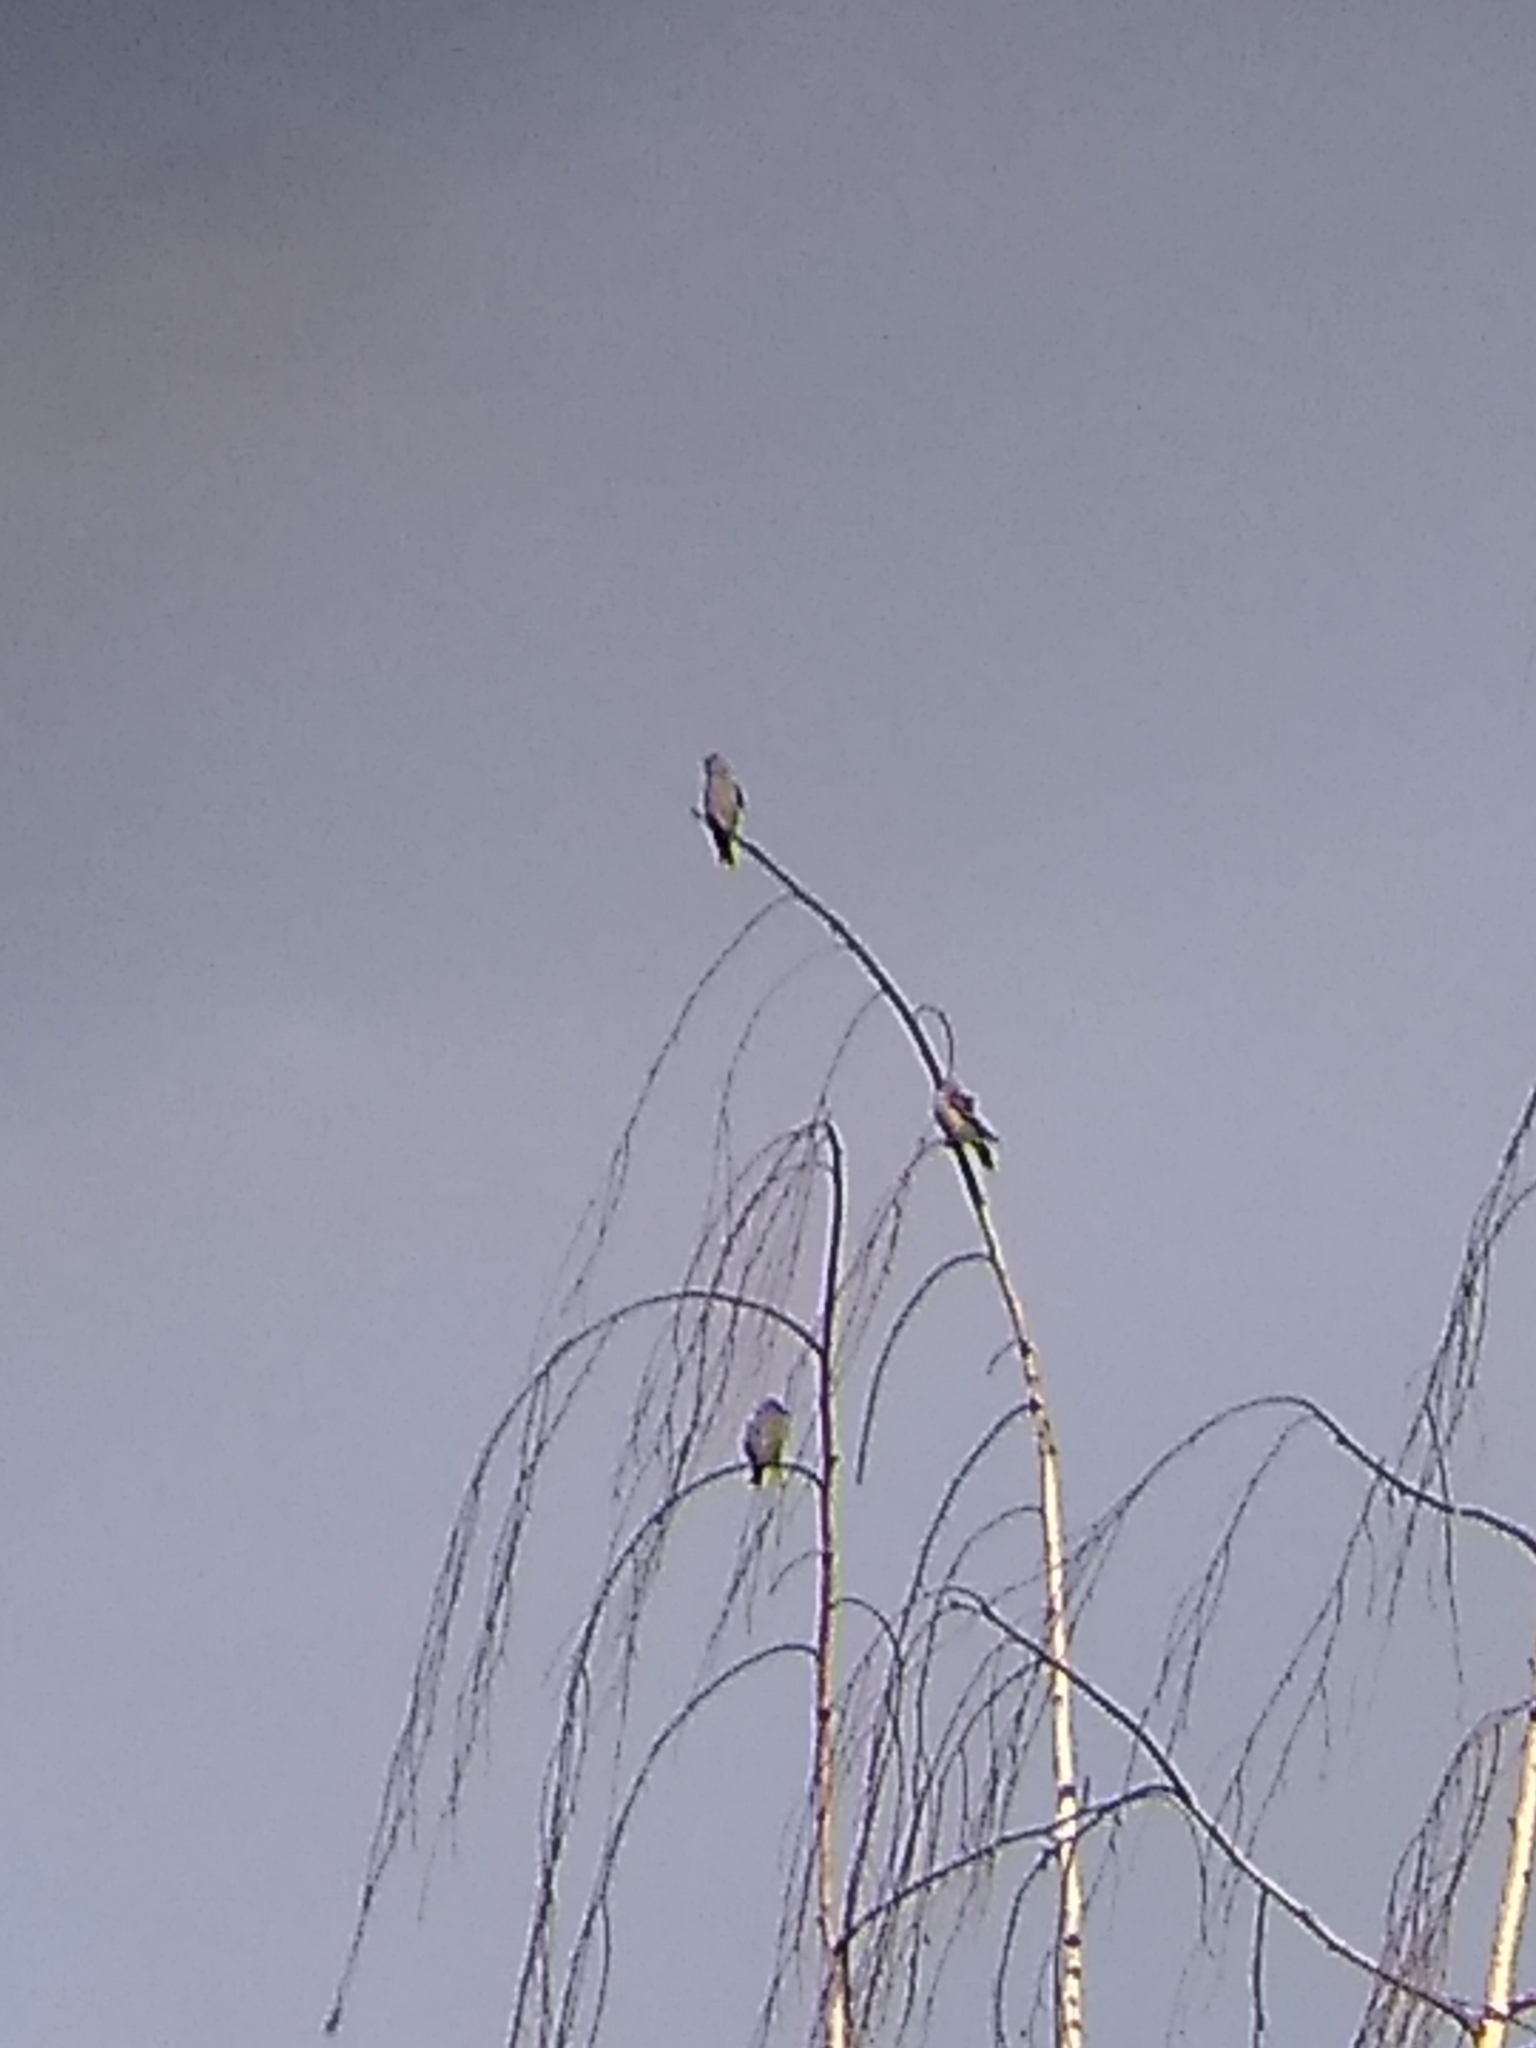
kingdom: Animalia
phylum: Chordata
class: Aves
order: Passeriformes
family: Fringillidae
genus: Spinus
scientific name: Spinus pinus
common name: Pine siskin
